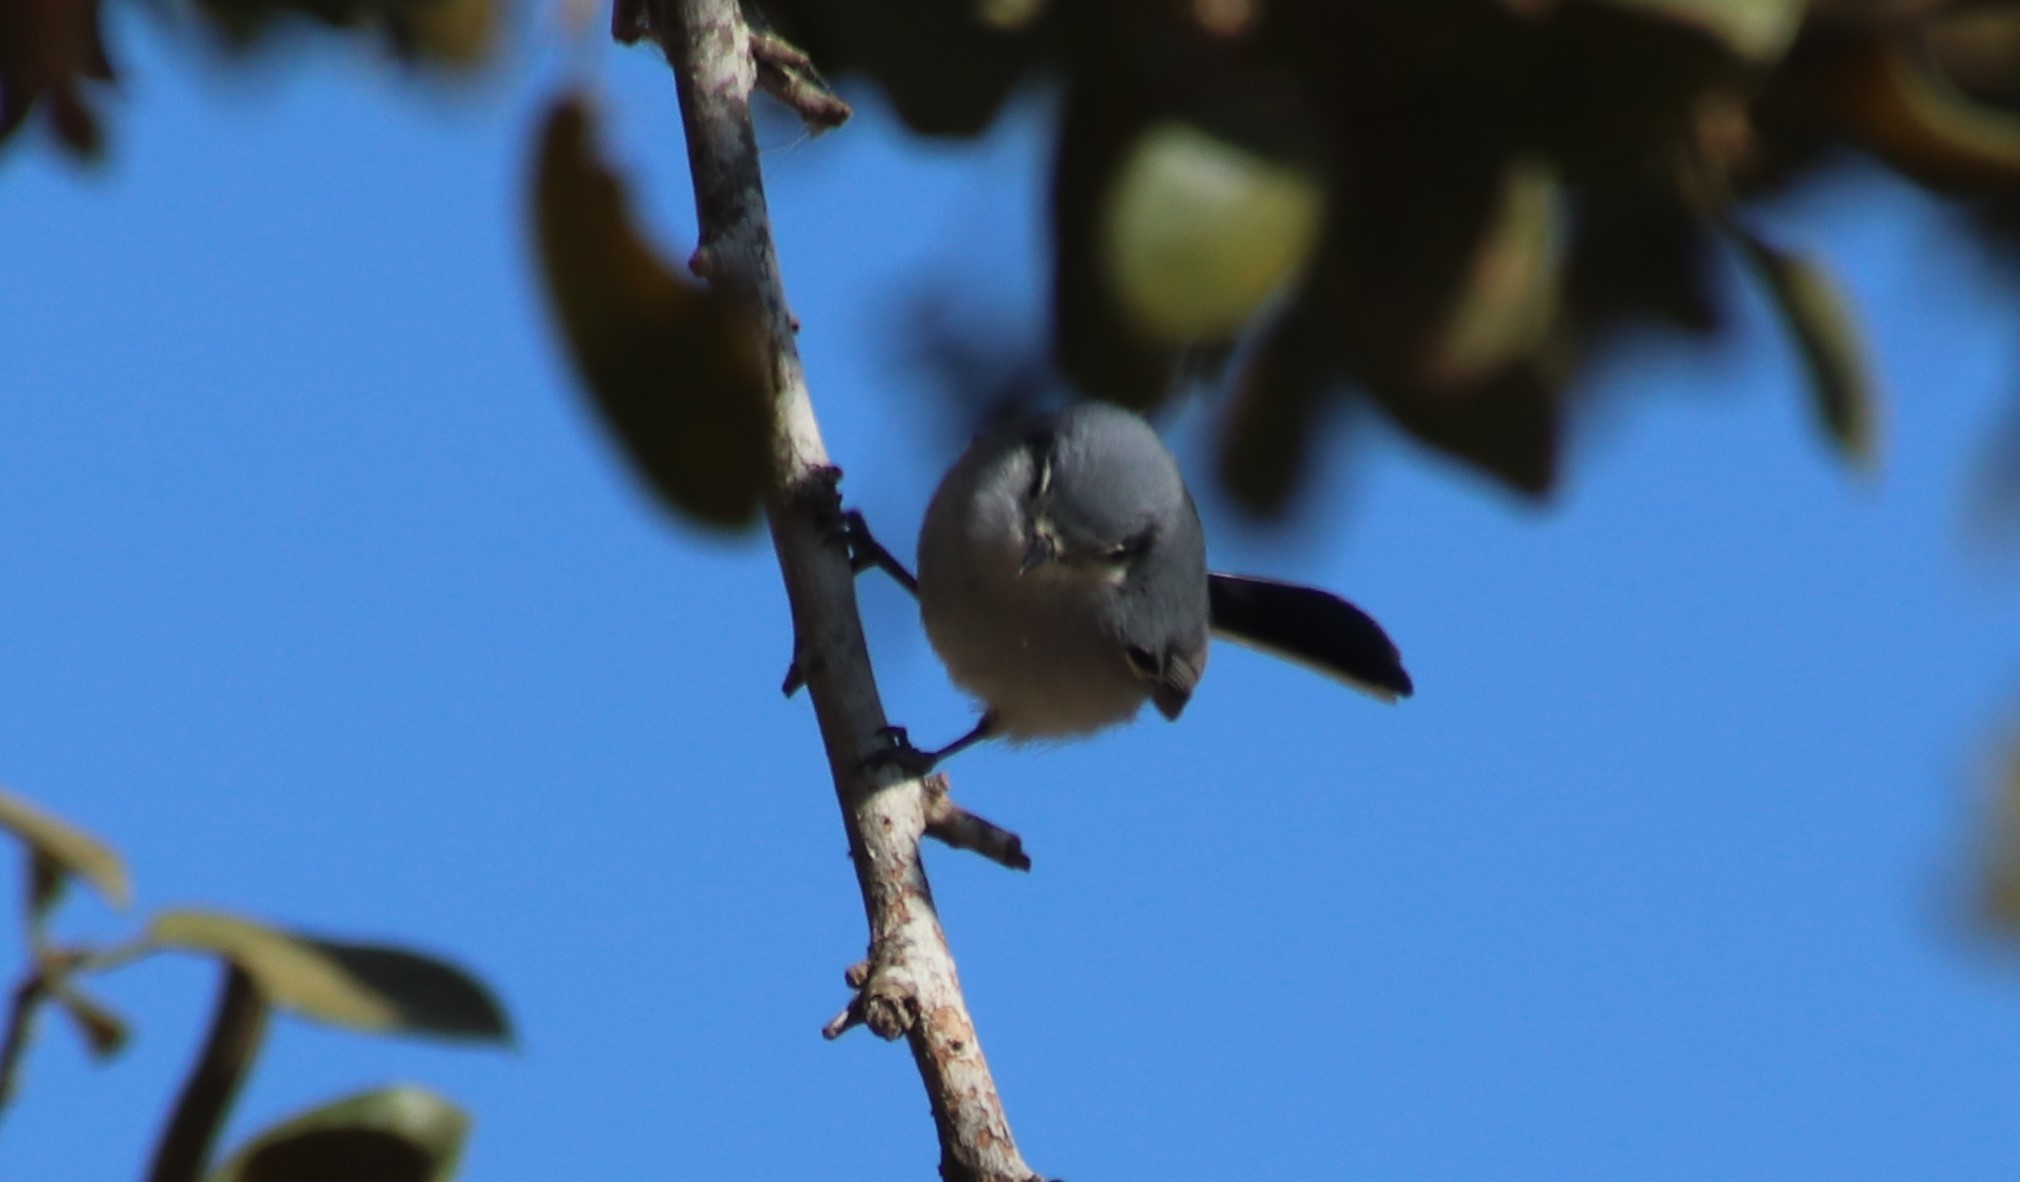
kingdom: Animalia
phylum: Chordata
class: Aves
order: Passeriformes
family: Polioptilidae
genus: Polioptila
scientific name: Polioptila dumicola
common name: Masked gnatcatcher
